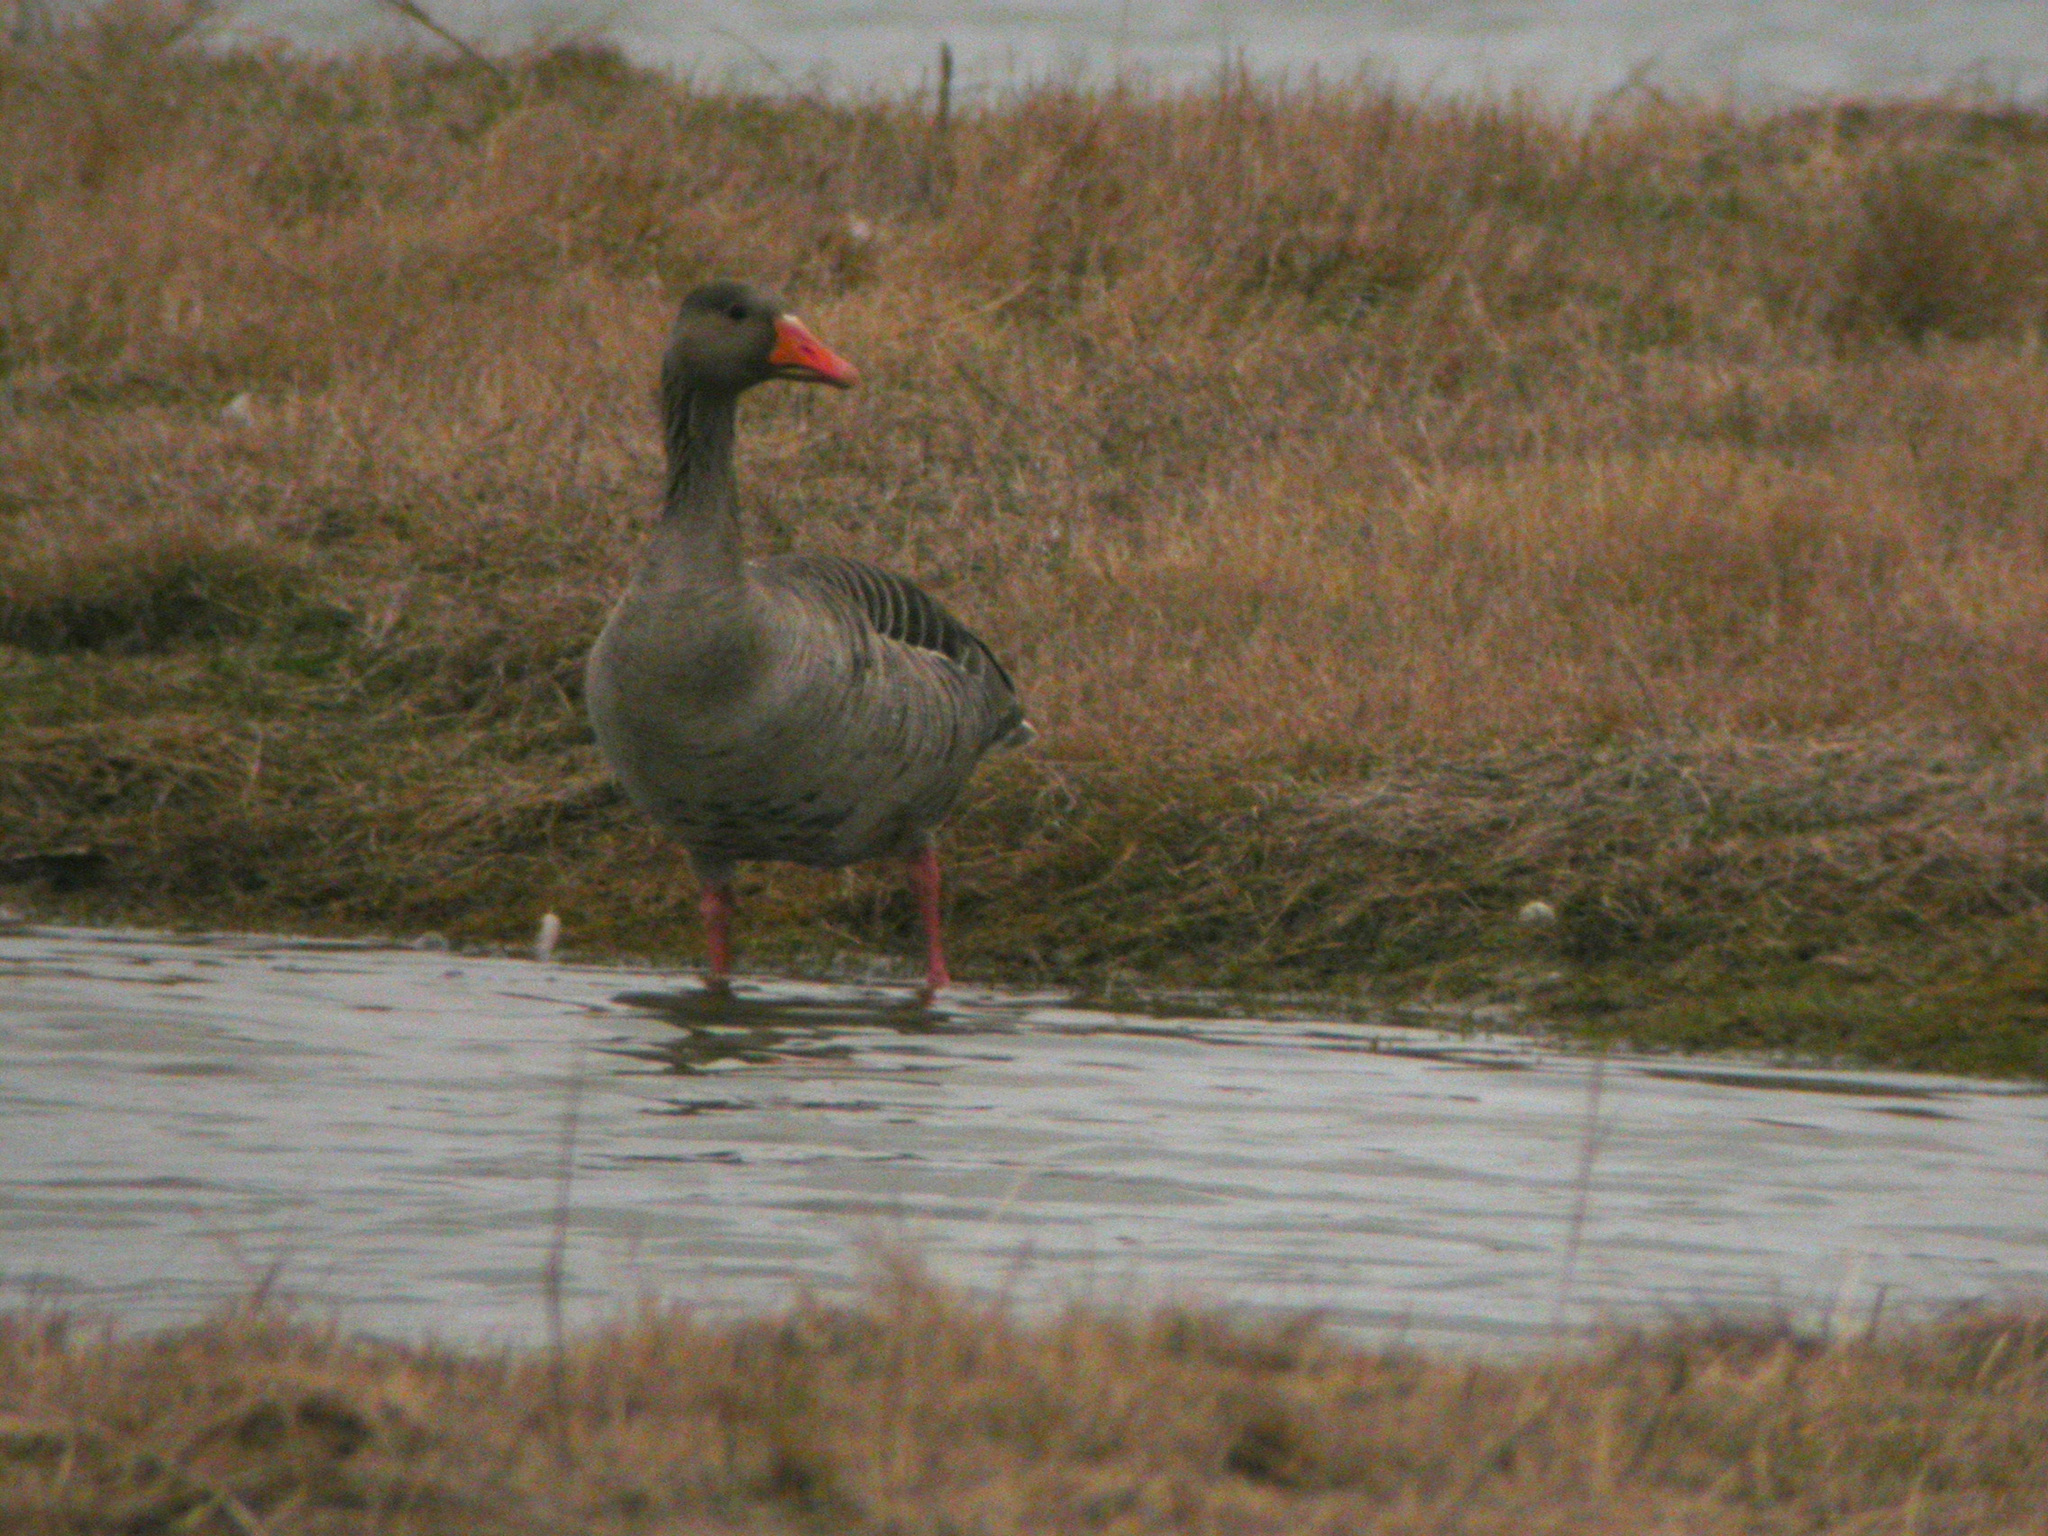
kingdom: Animalia
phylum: Chordata
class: Aves
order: Anseriformes
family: Anatidae
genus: Anser
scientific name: Anser anser
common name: Greylag goose
